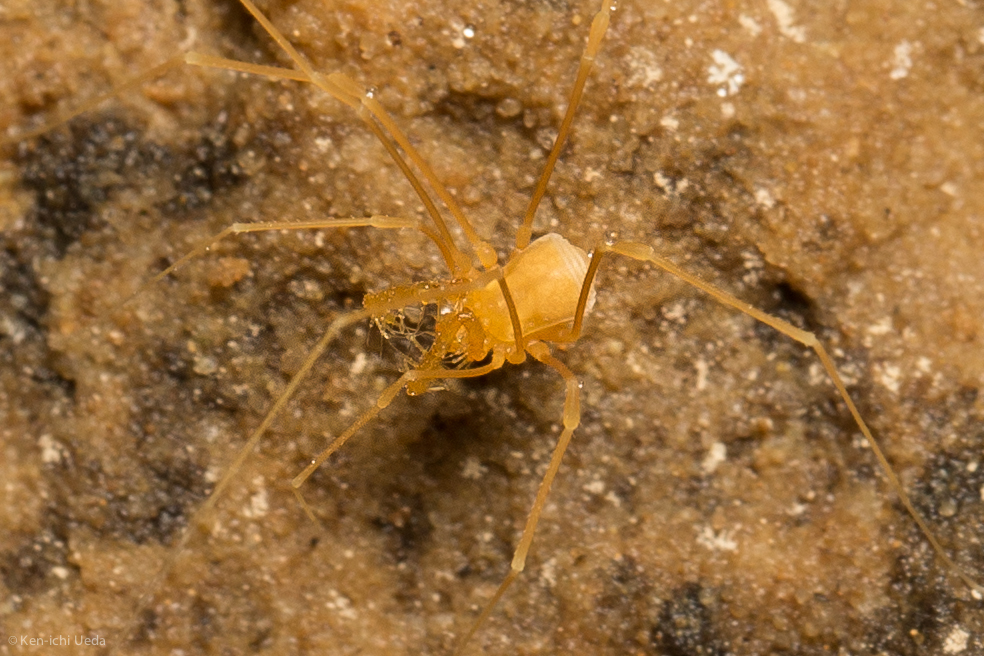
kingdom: Animalia
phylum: Arthropoda
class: Arachnida
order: Opiliones
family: Phalangodidae
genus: Tolus
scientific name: Tolus appalachius
